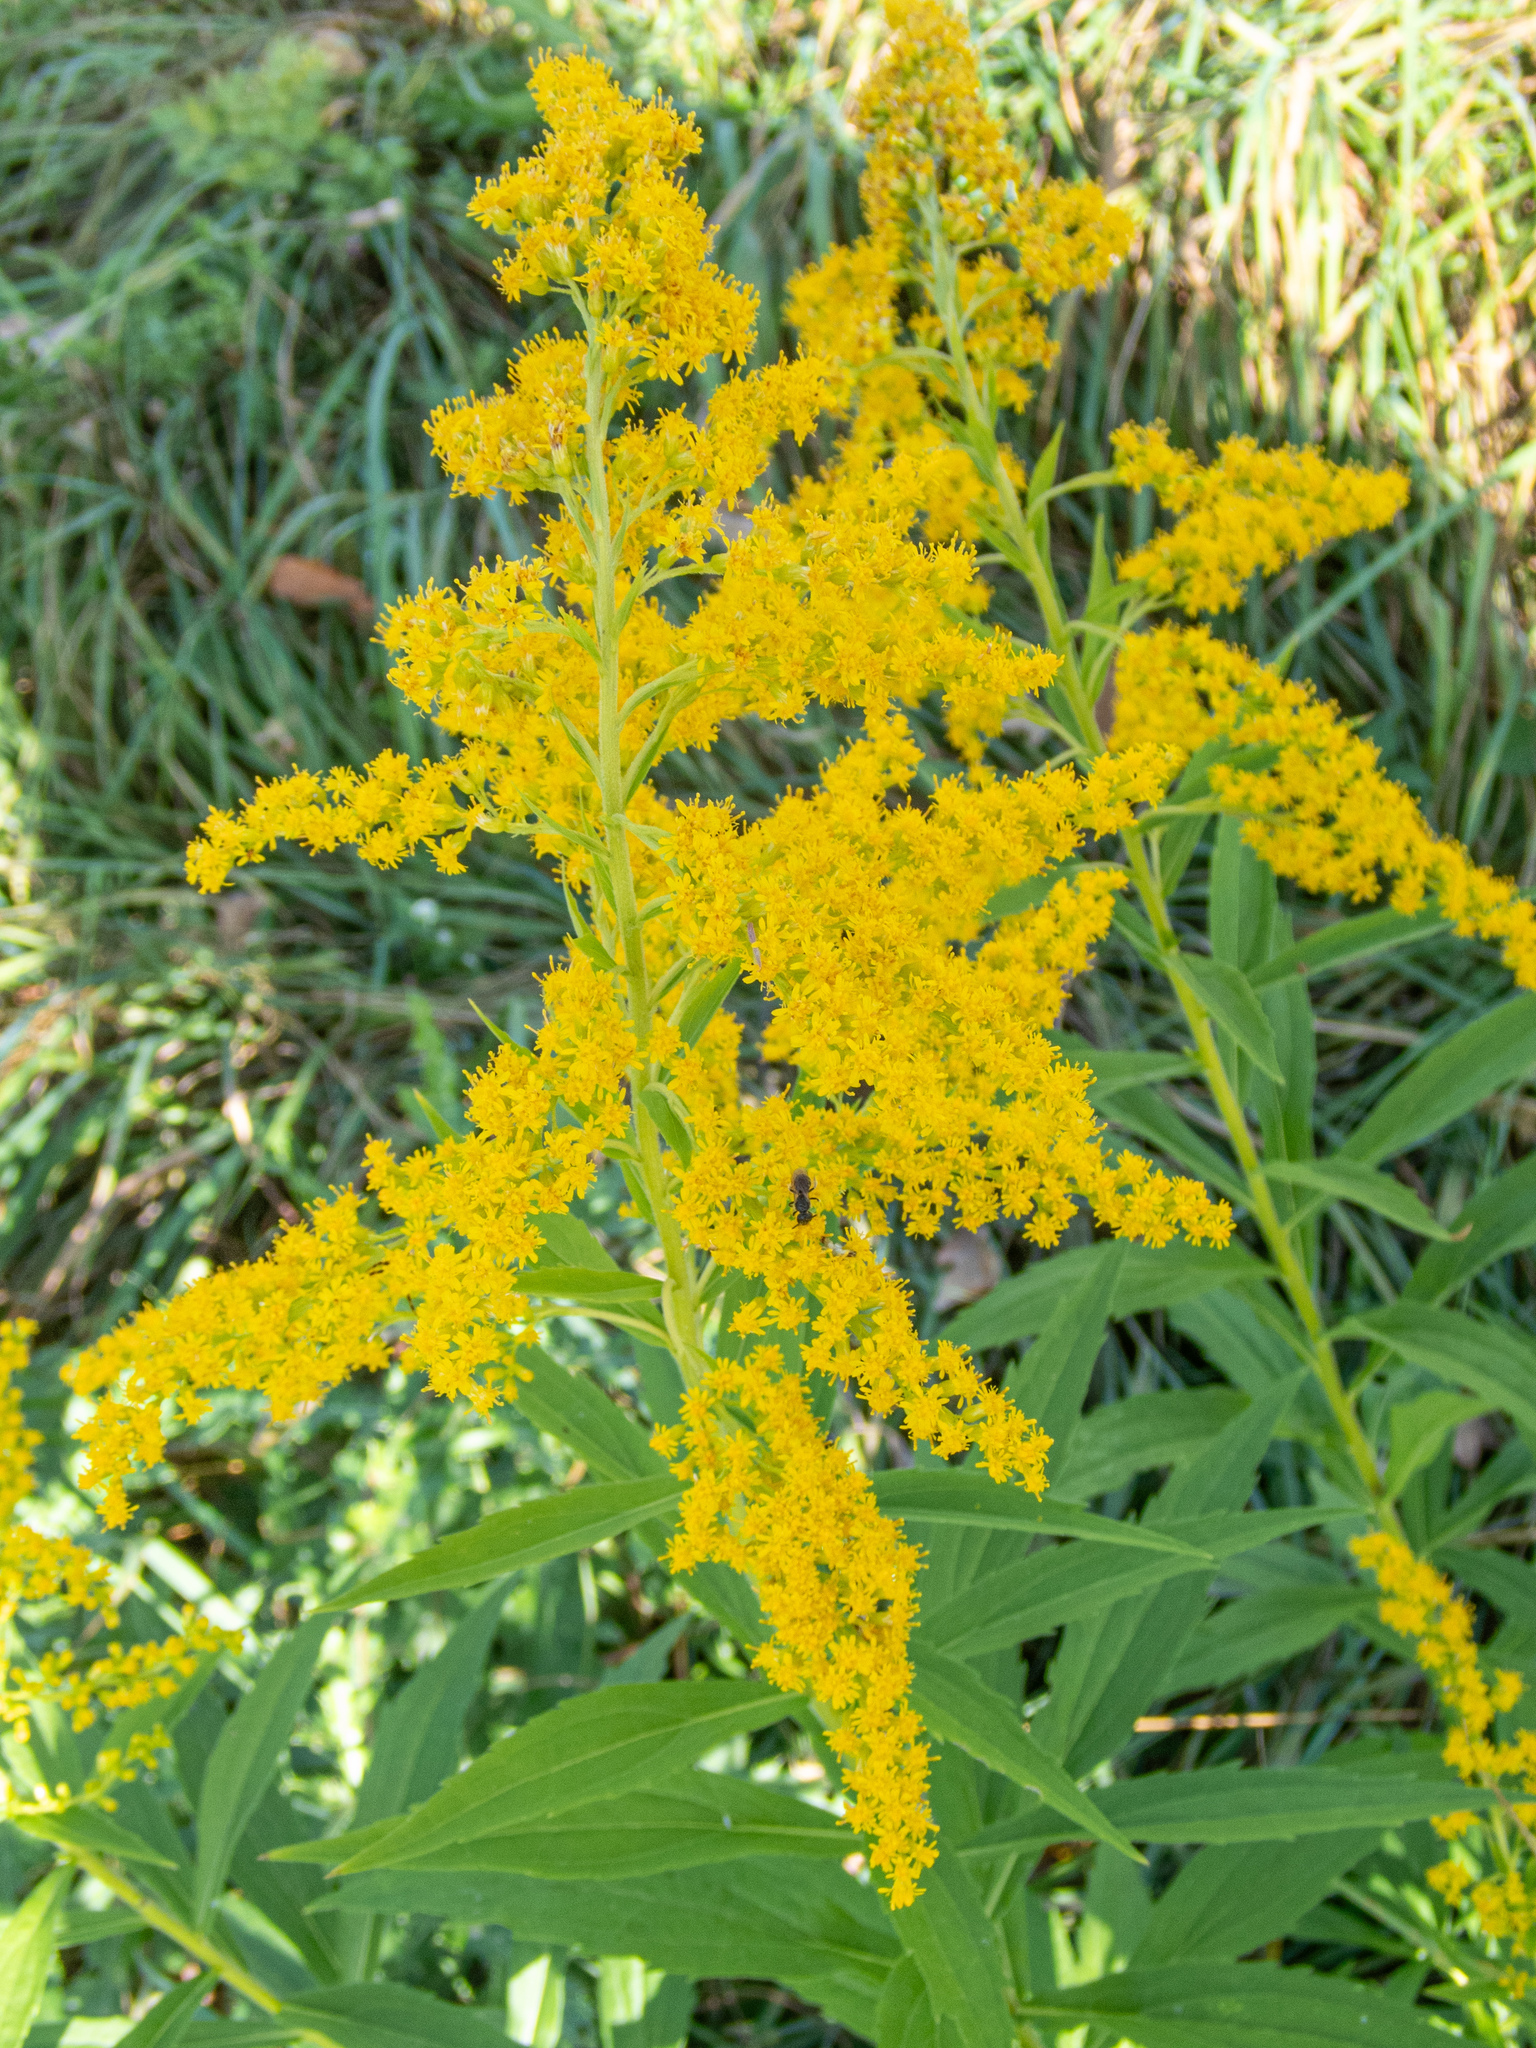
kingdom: Plantae
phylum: Tracheophyta
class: Magnoliopsida
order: Asterales
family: Asteraceae
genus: Solidago
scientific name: Solidago canadensis
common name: Canada goldenrod
